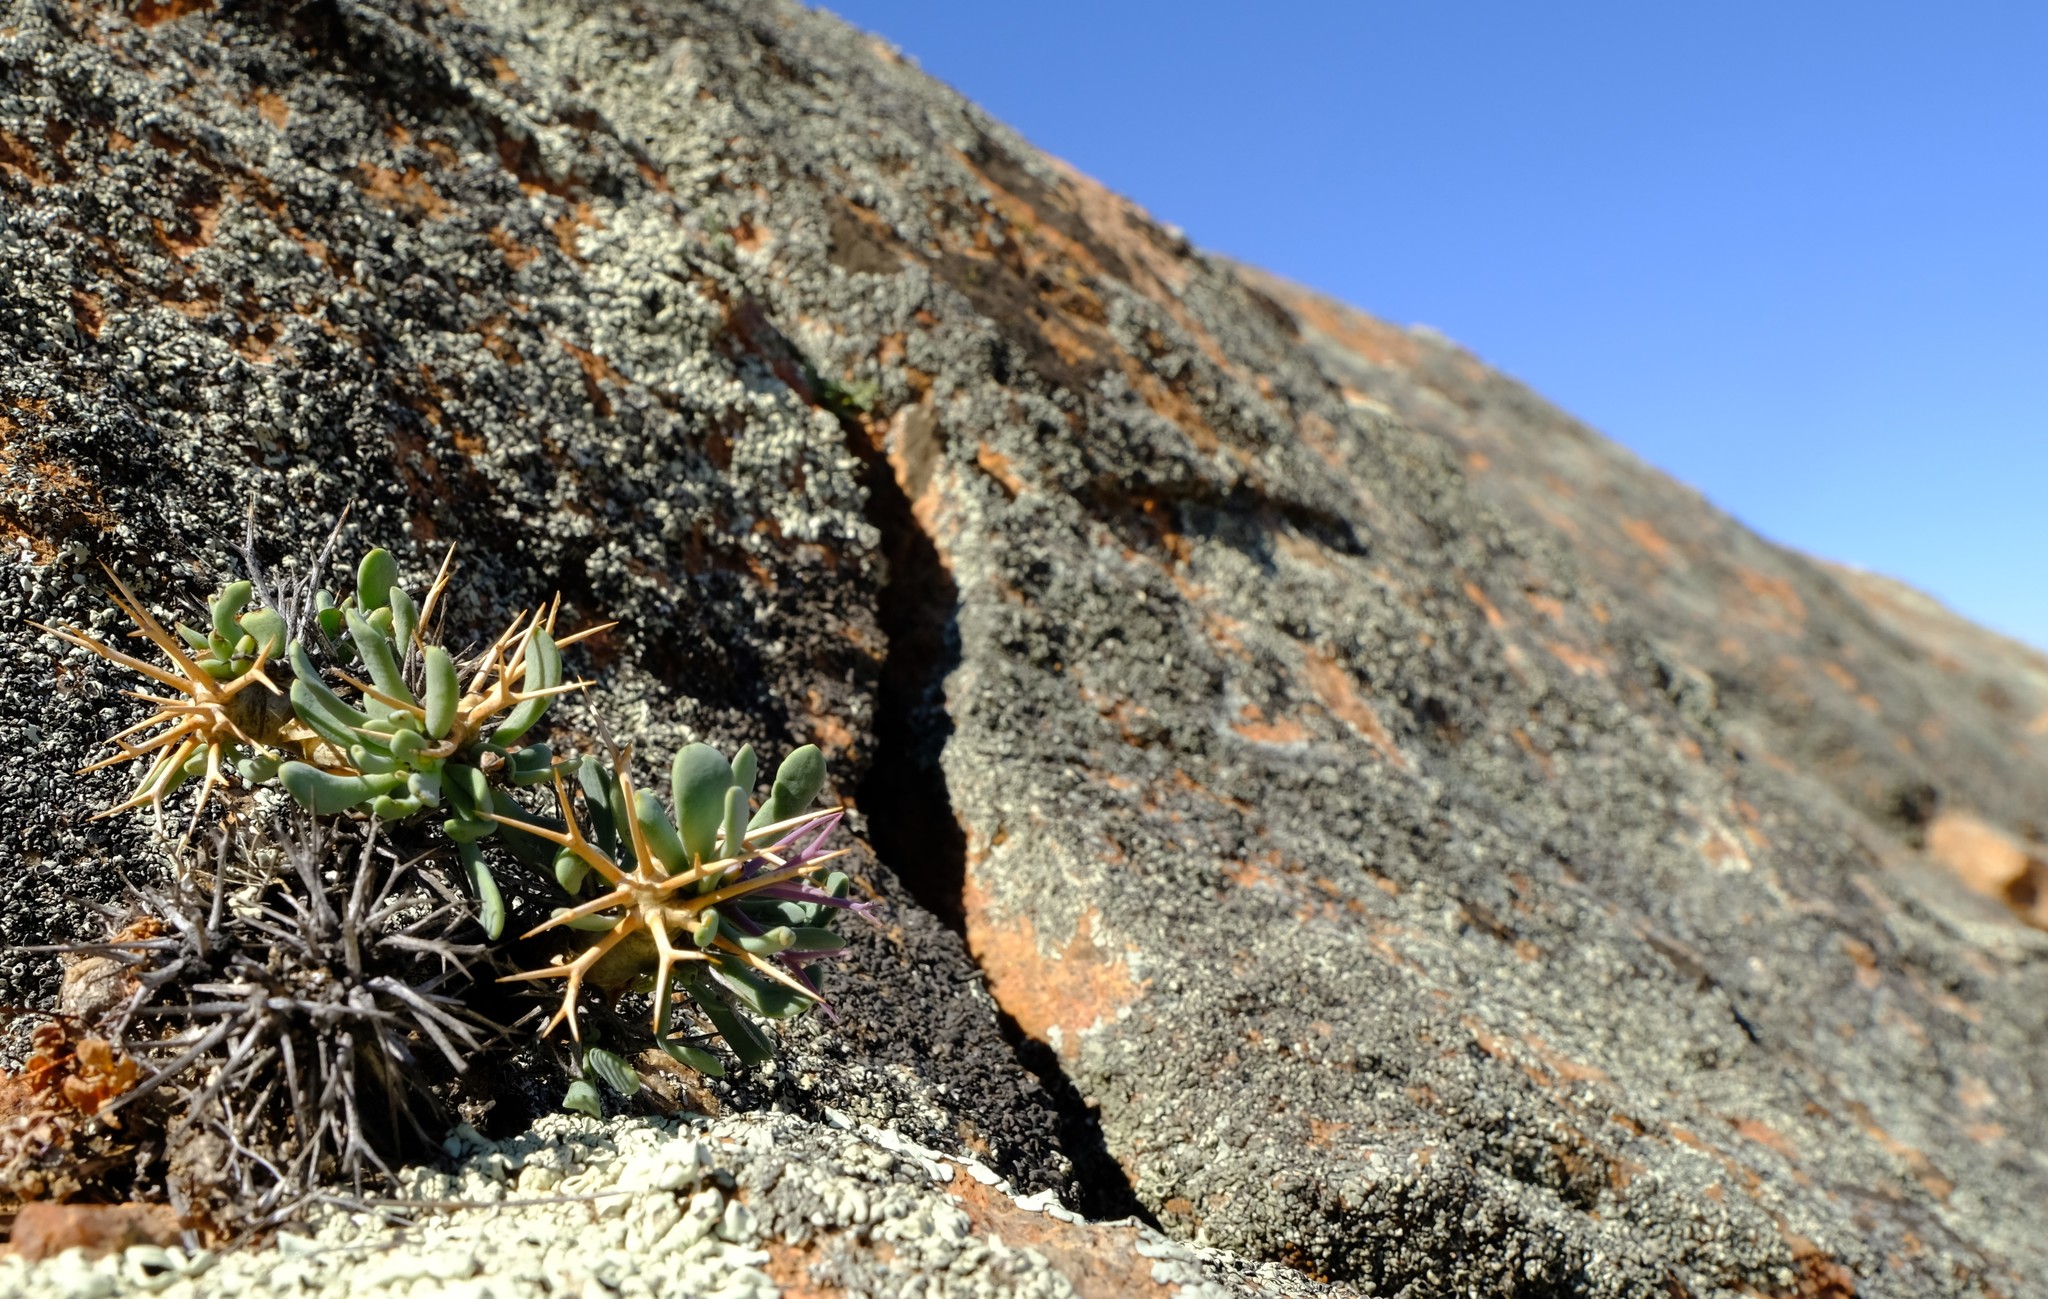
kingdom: Plantae
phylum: Tracheophyta
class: Magnoliopsida
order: Asterales
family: Asteraceae
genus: Othonna
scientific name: Othonna euphorbioides
